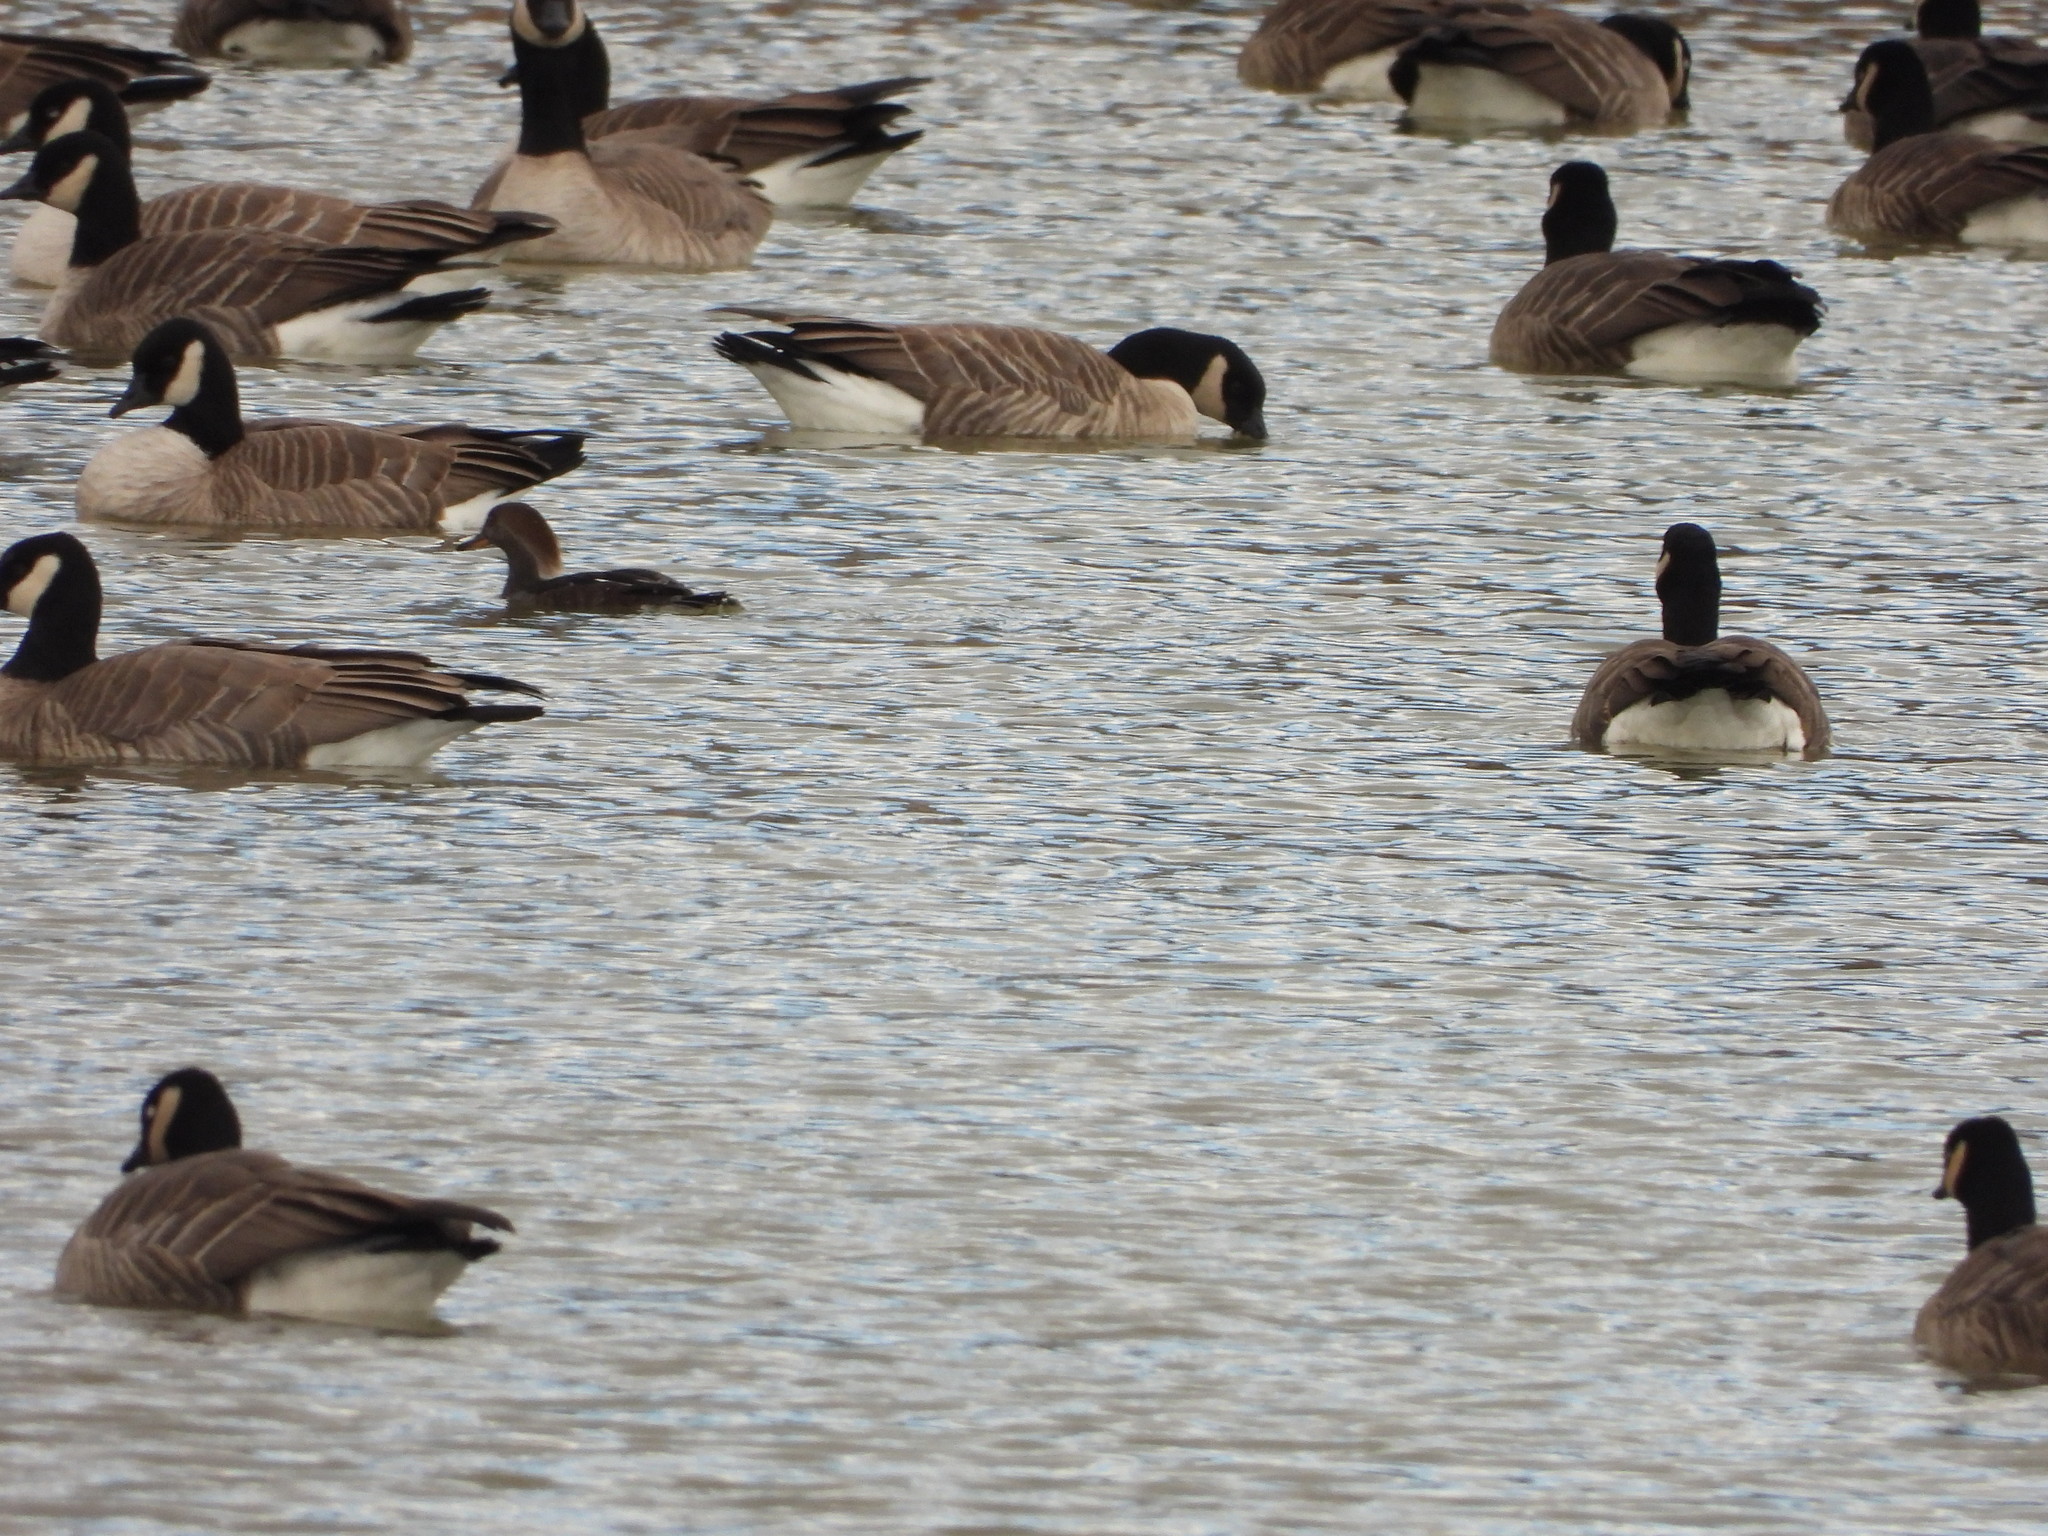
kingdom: Animalia
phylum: Chordata
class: Aves
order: Anseriformes
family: Anatidae
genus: Lophodytes
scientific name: Lophodytes cucullatus
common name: Hooded merganser
